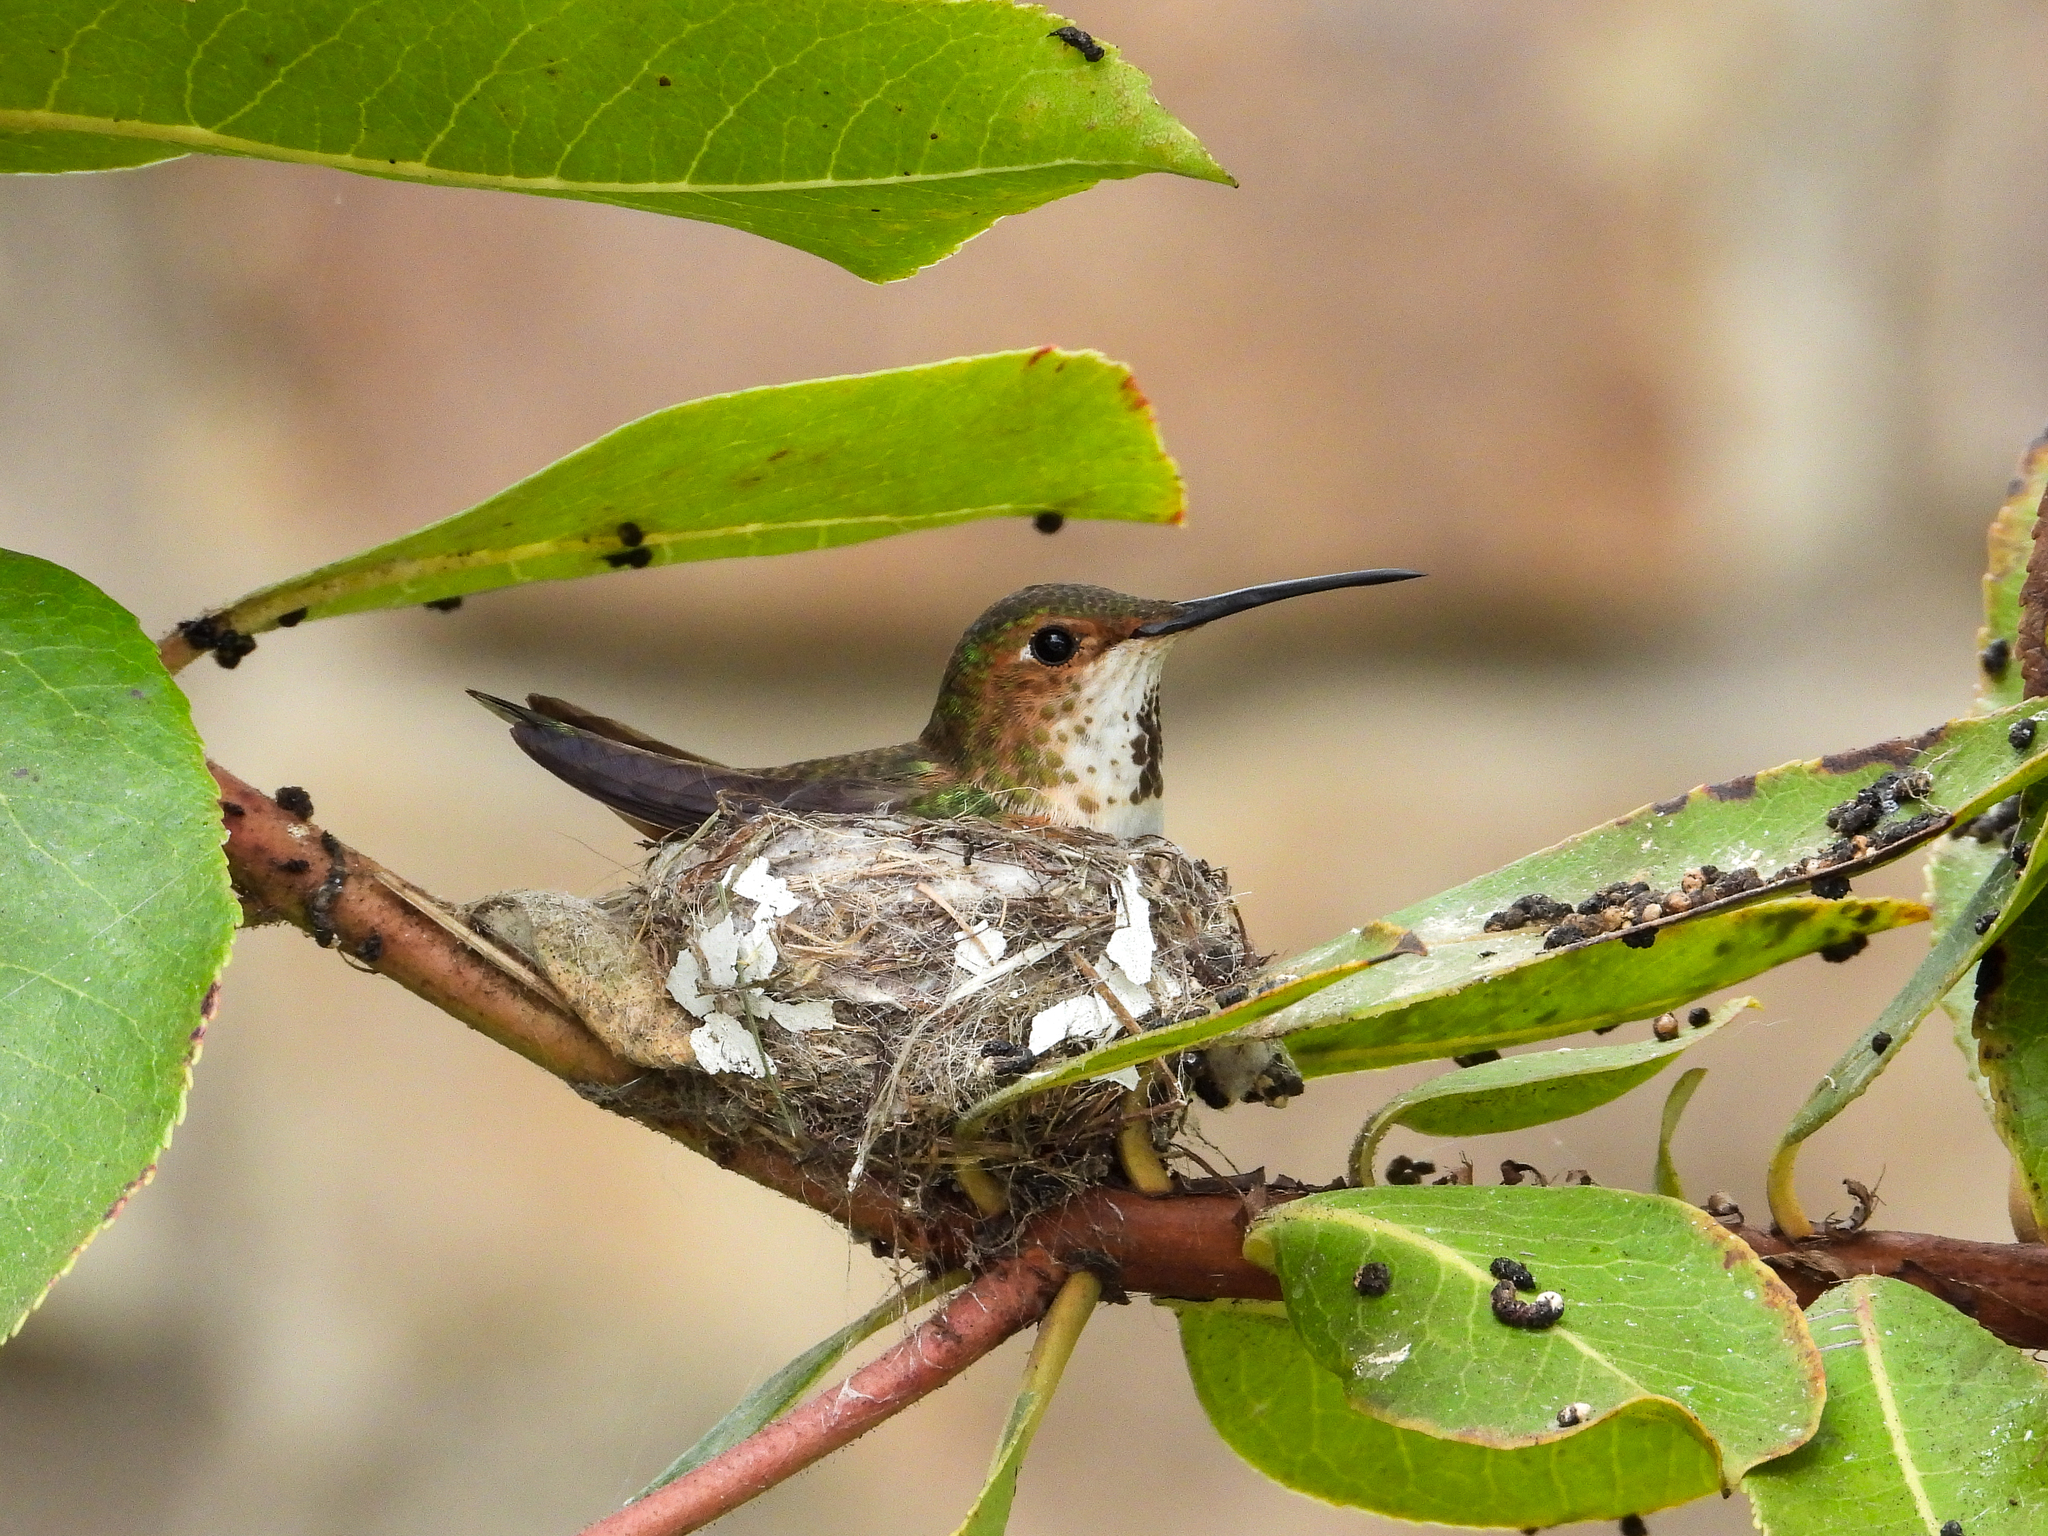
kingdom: Animalia
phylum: Chordata
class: Aves
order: Apodiformes
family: Trochilidae
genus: Selasphorus
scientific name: Selasphorus sasin
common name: Allen's hummingbird
